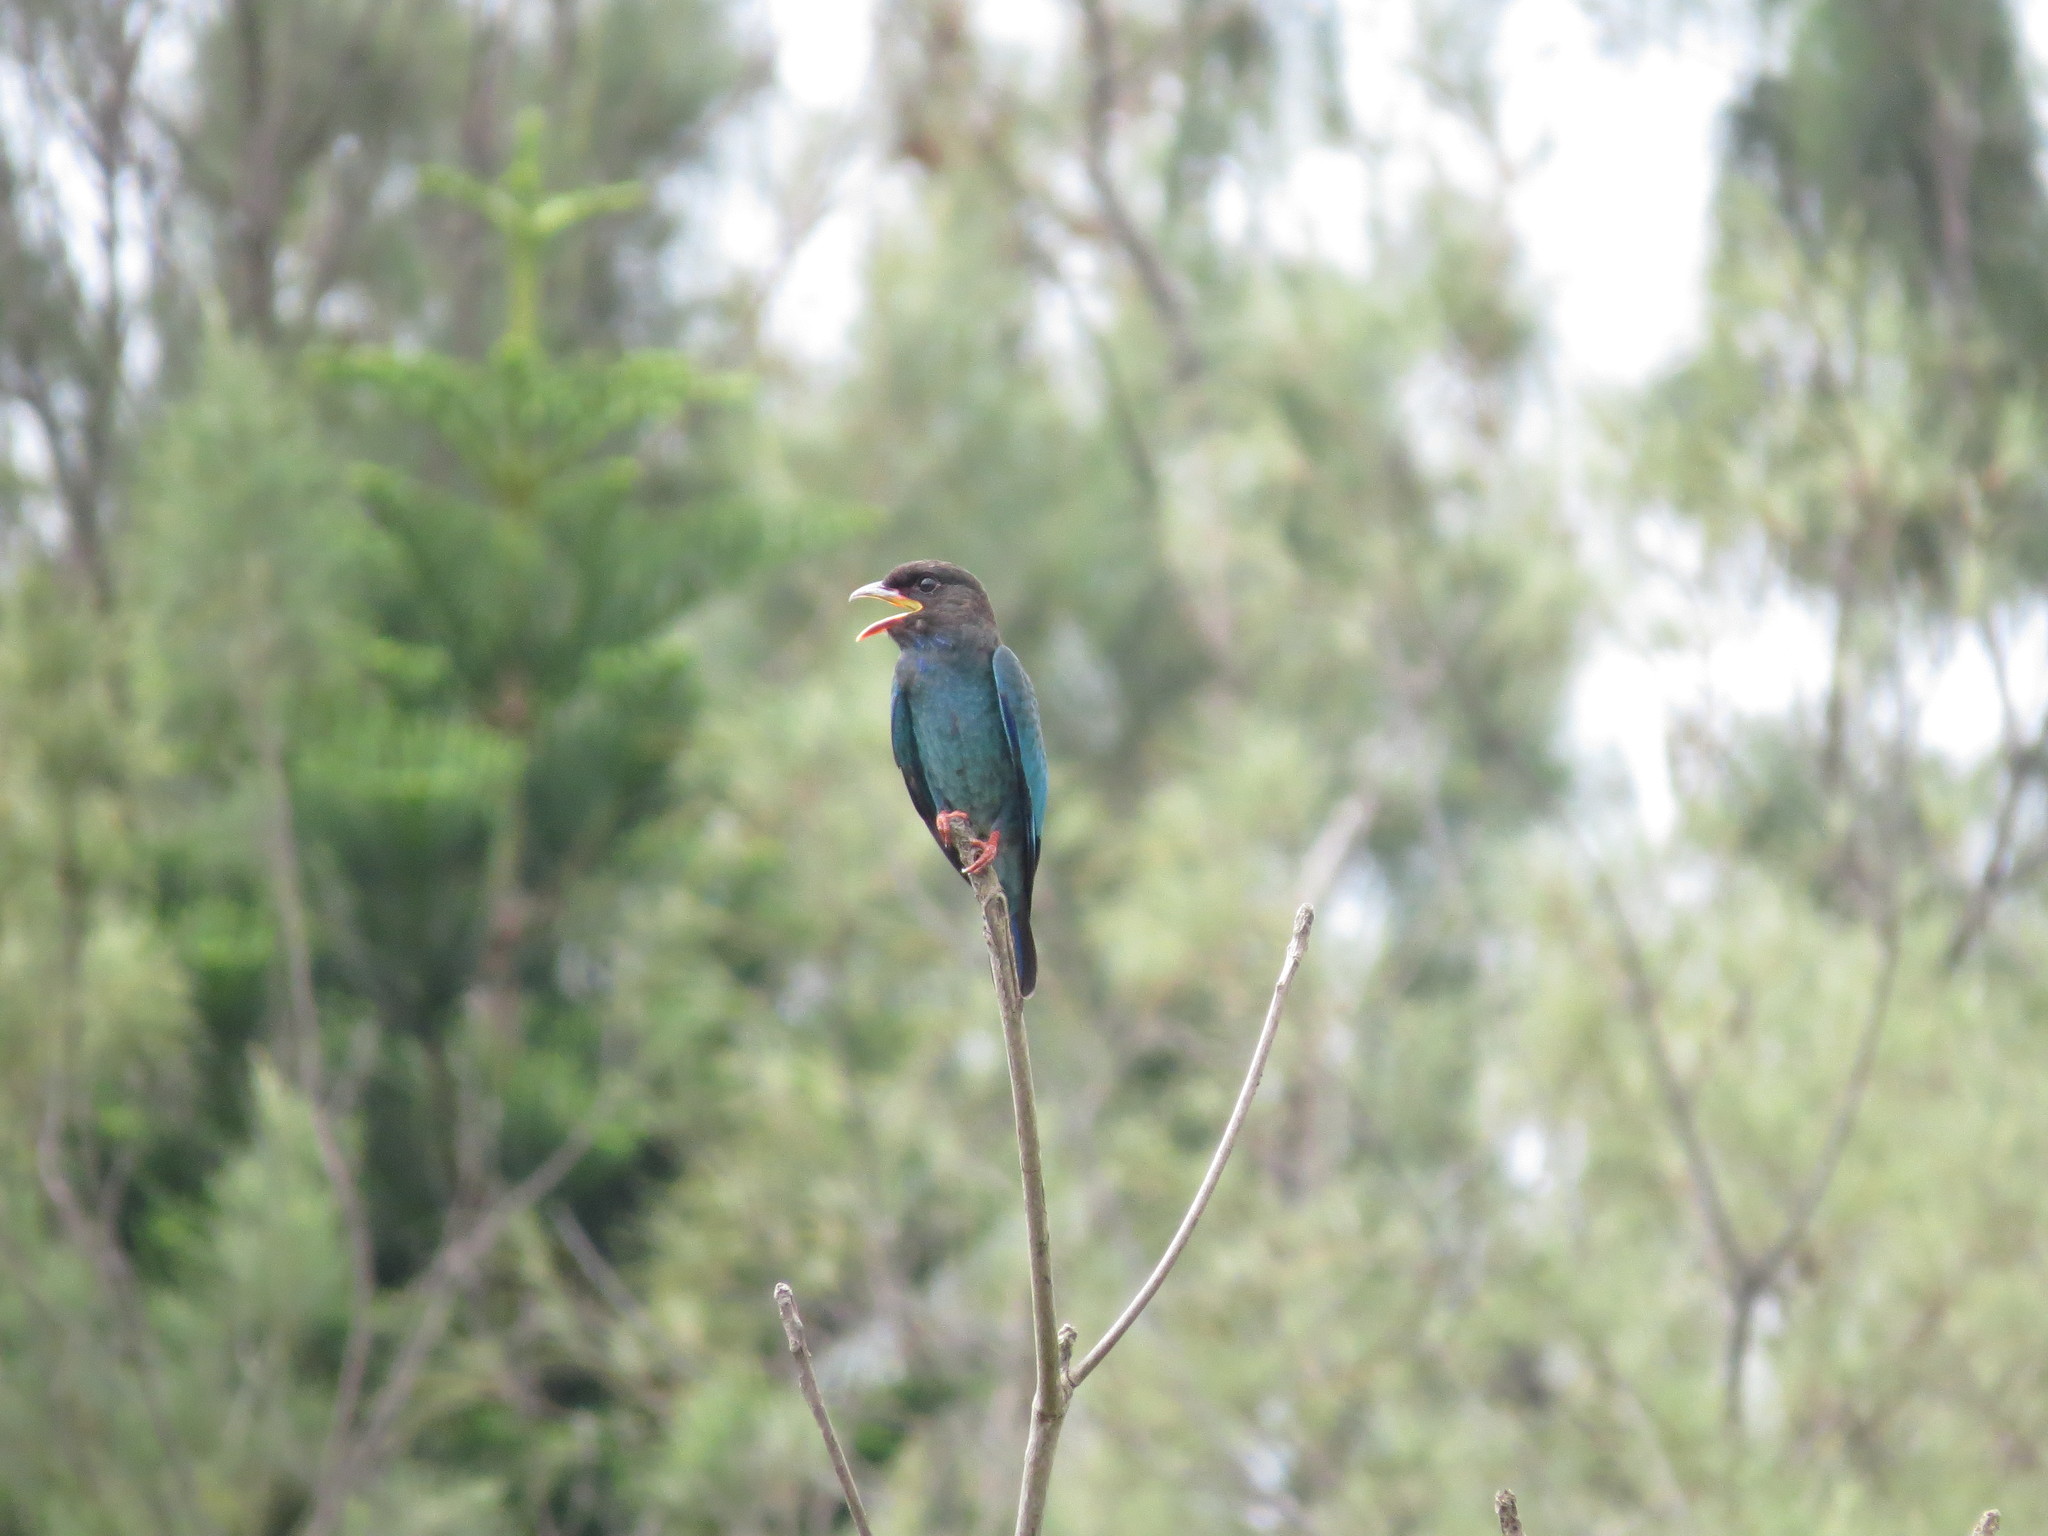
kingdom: Animalia
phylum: Chordata
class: Aves
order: Coraciiformes
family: Coraciidae
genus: Eurystomus
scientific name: Eurystomus orientalis
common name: Oriental dollarbird
